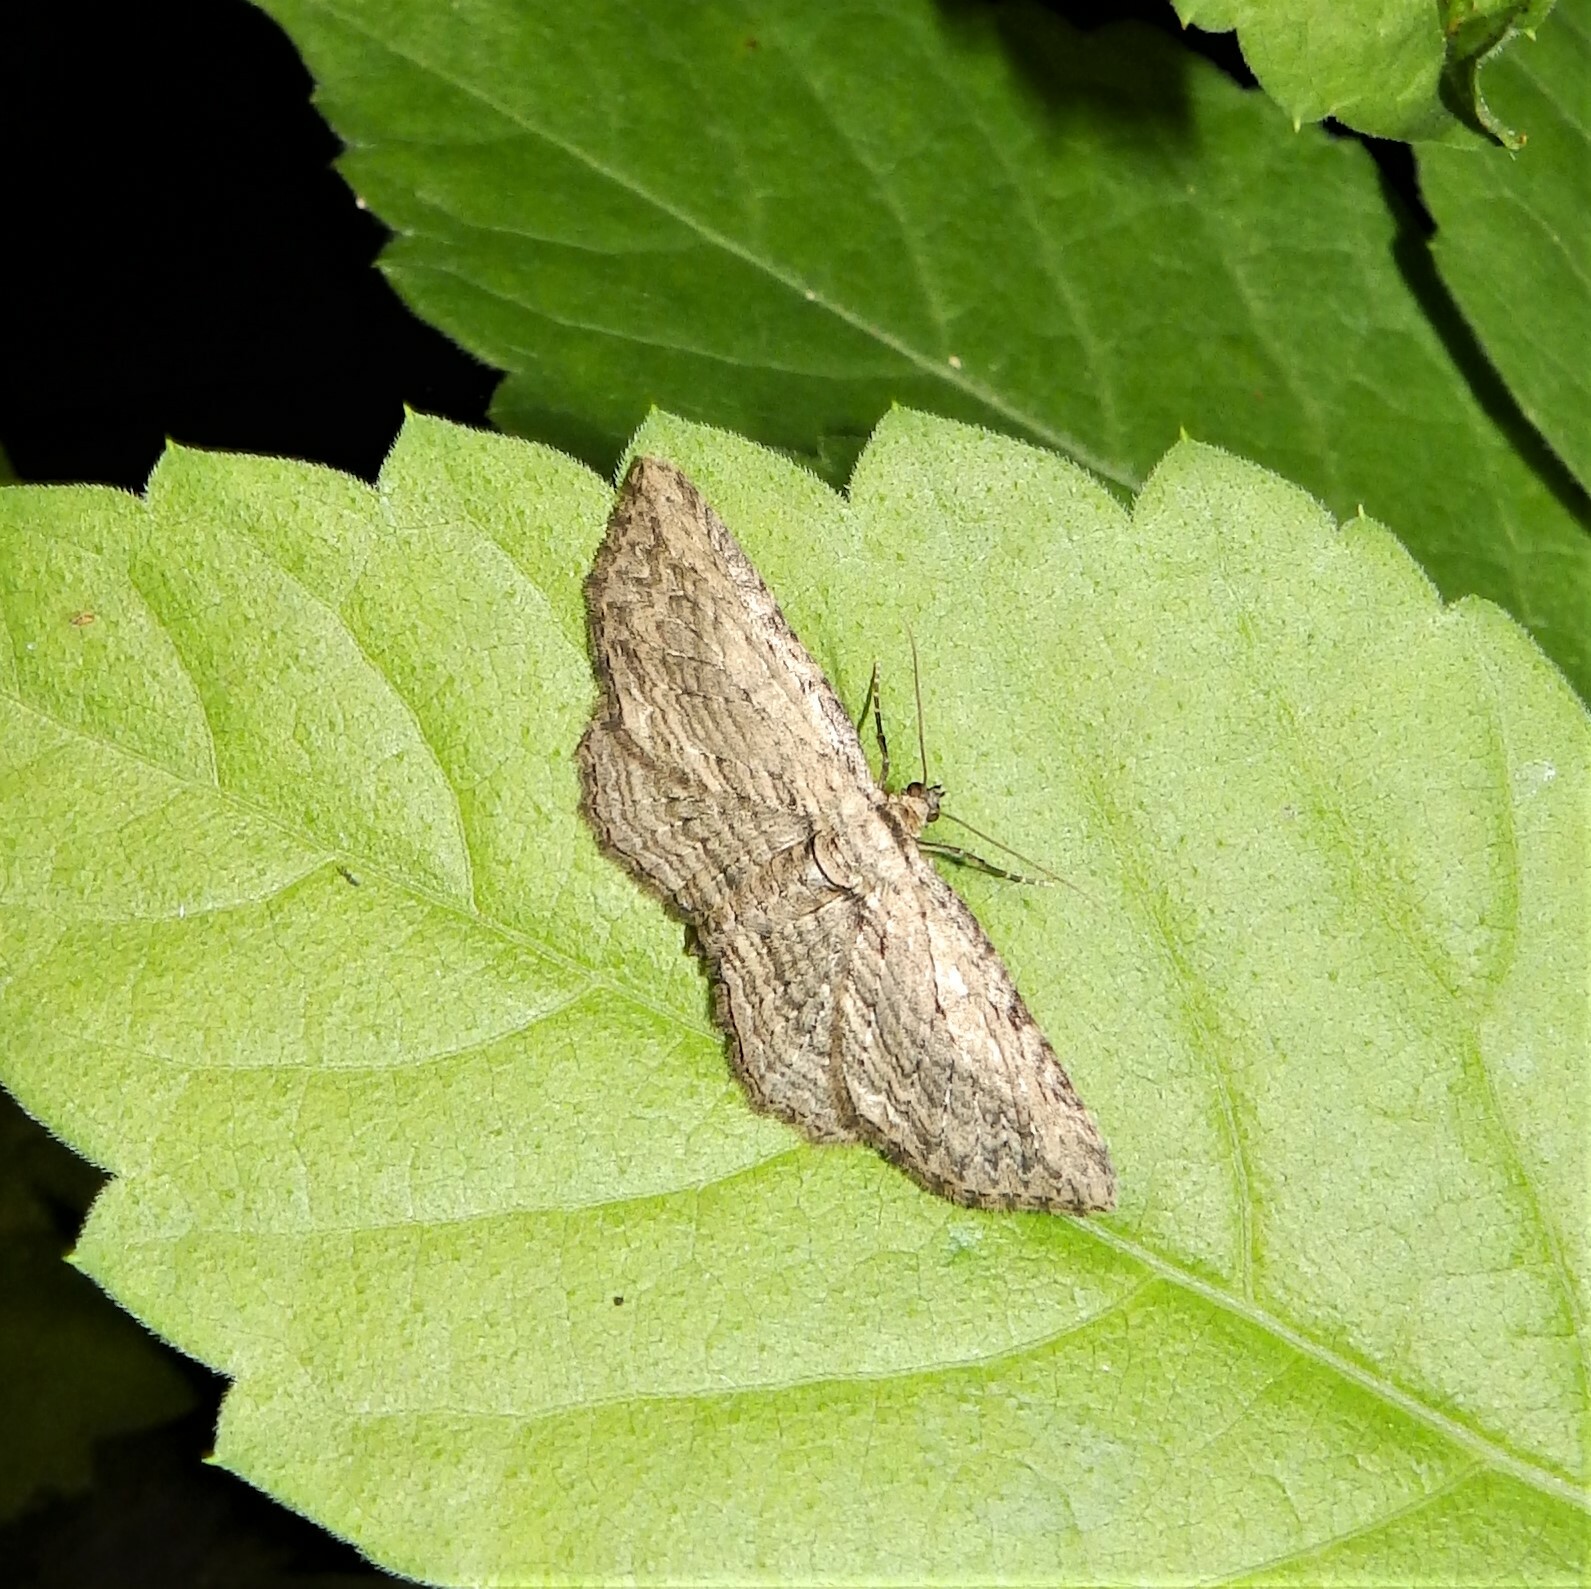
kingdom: Animalia
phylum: Arthropoda
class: Insecta
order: Lepidoptera
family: Geometridae
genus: Horisme
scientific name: Horisme intestinata
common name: Brown bark carpet
